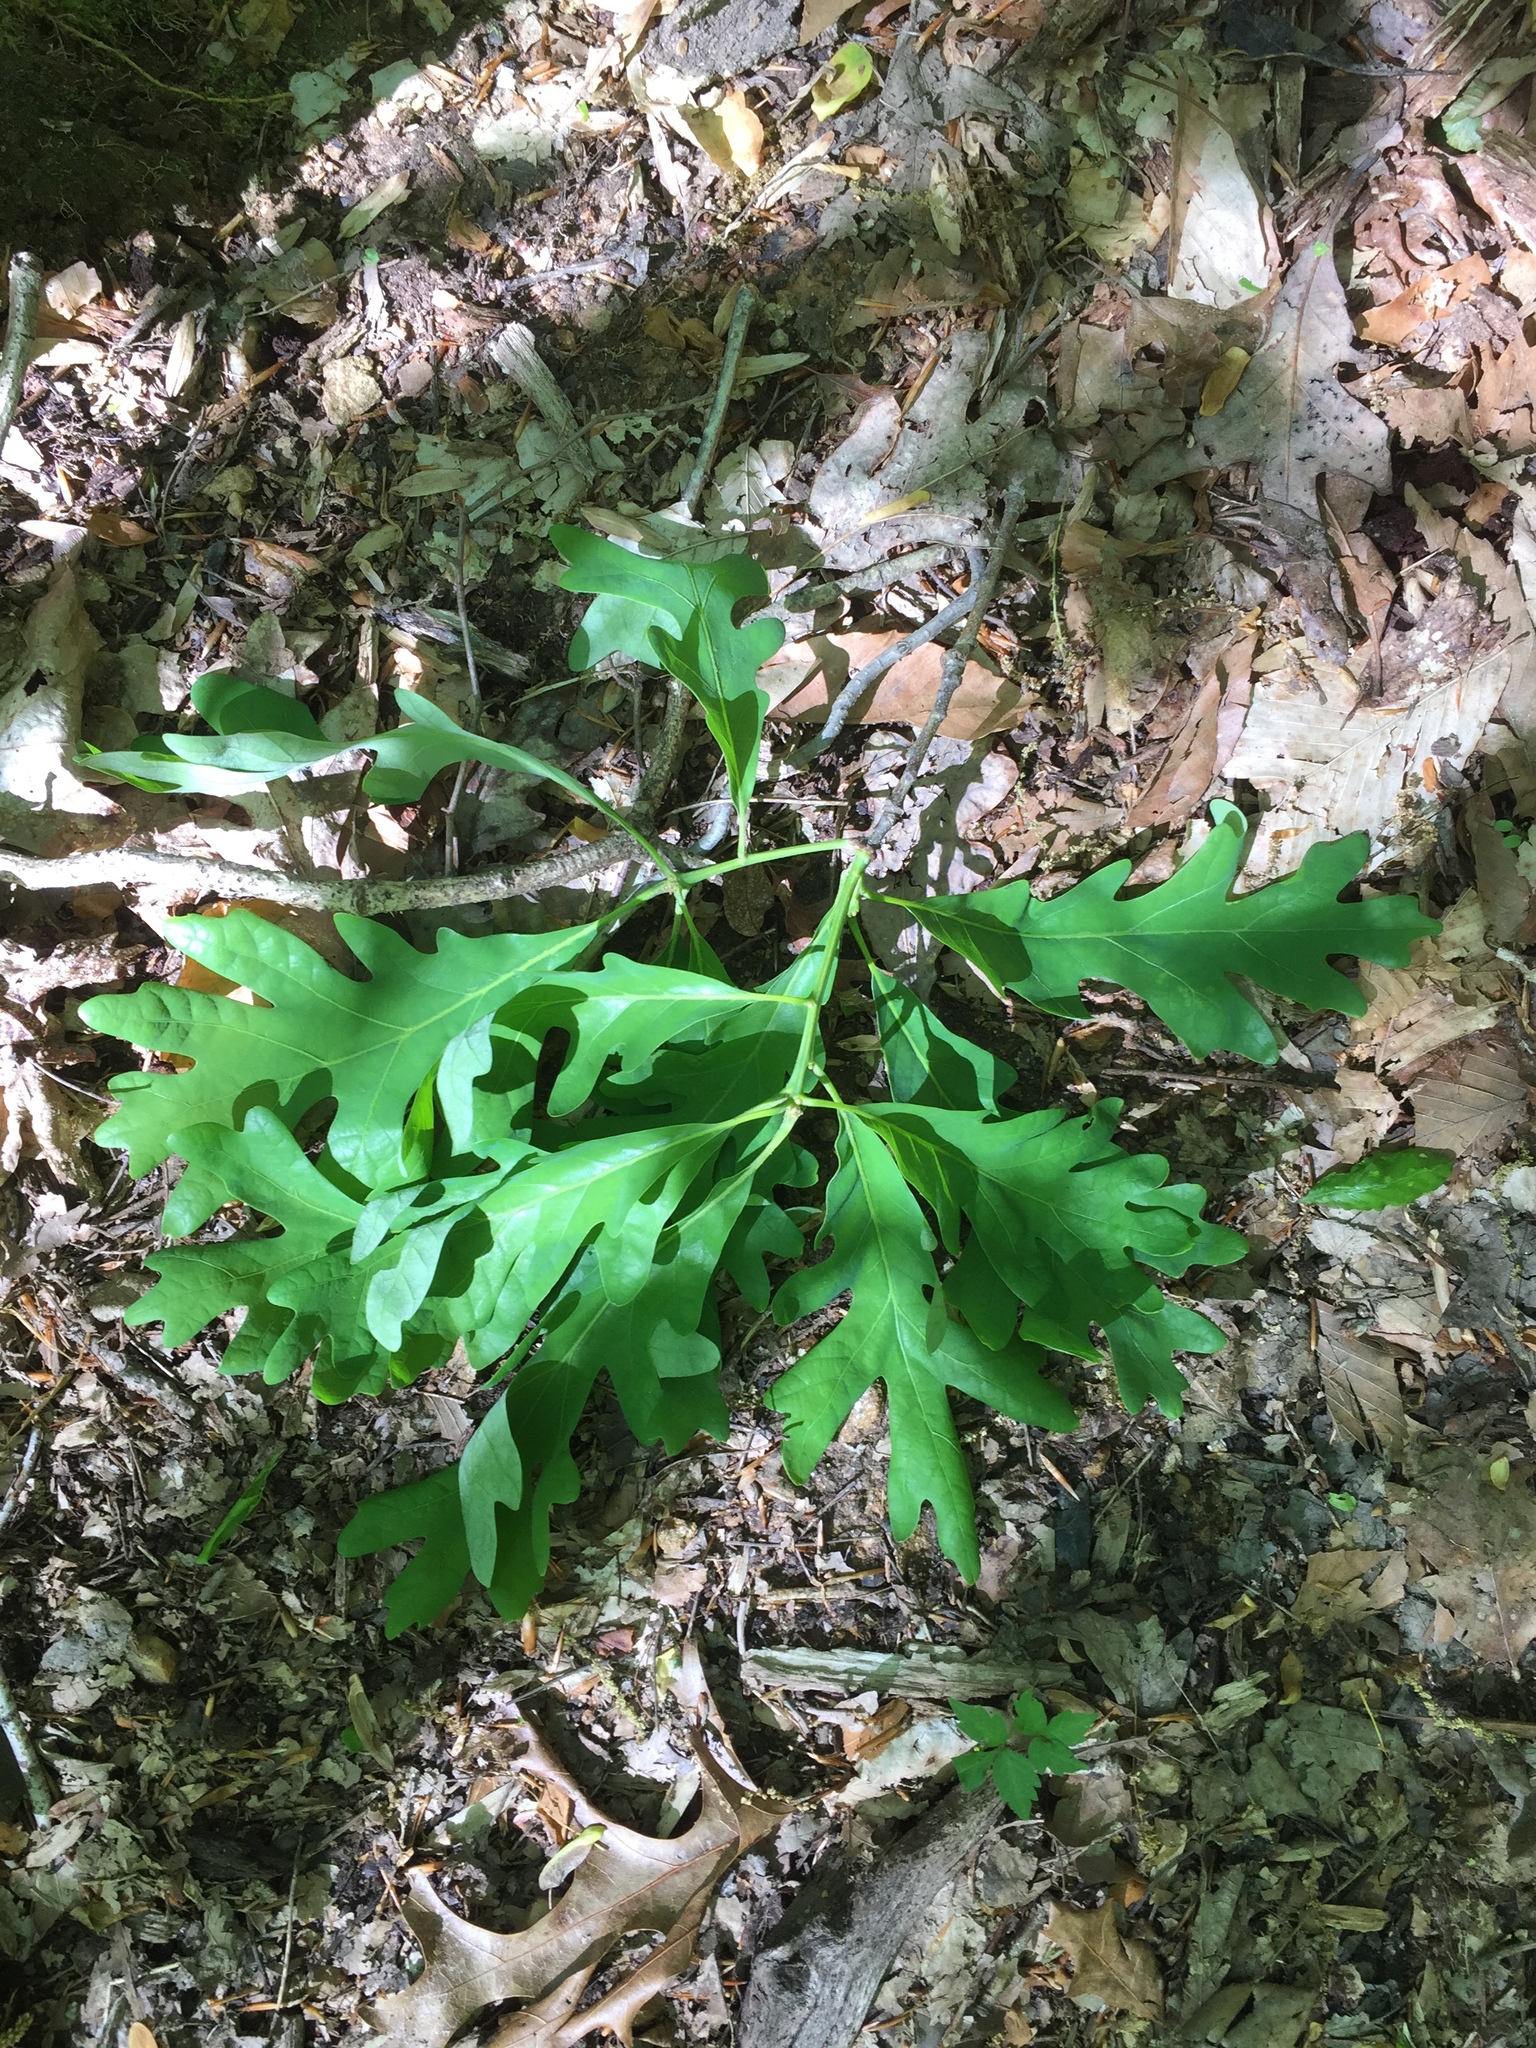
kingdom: Plantae
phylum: Tracheophyta
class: Magnoliopsida
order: Fagales
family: Fagaceae
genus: Quercus
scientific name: Quercus alba
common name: White oak
